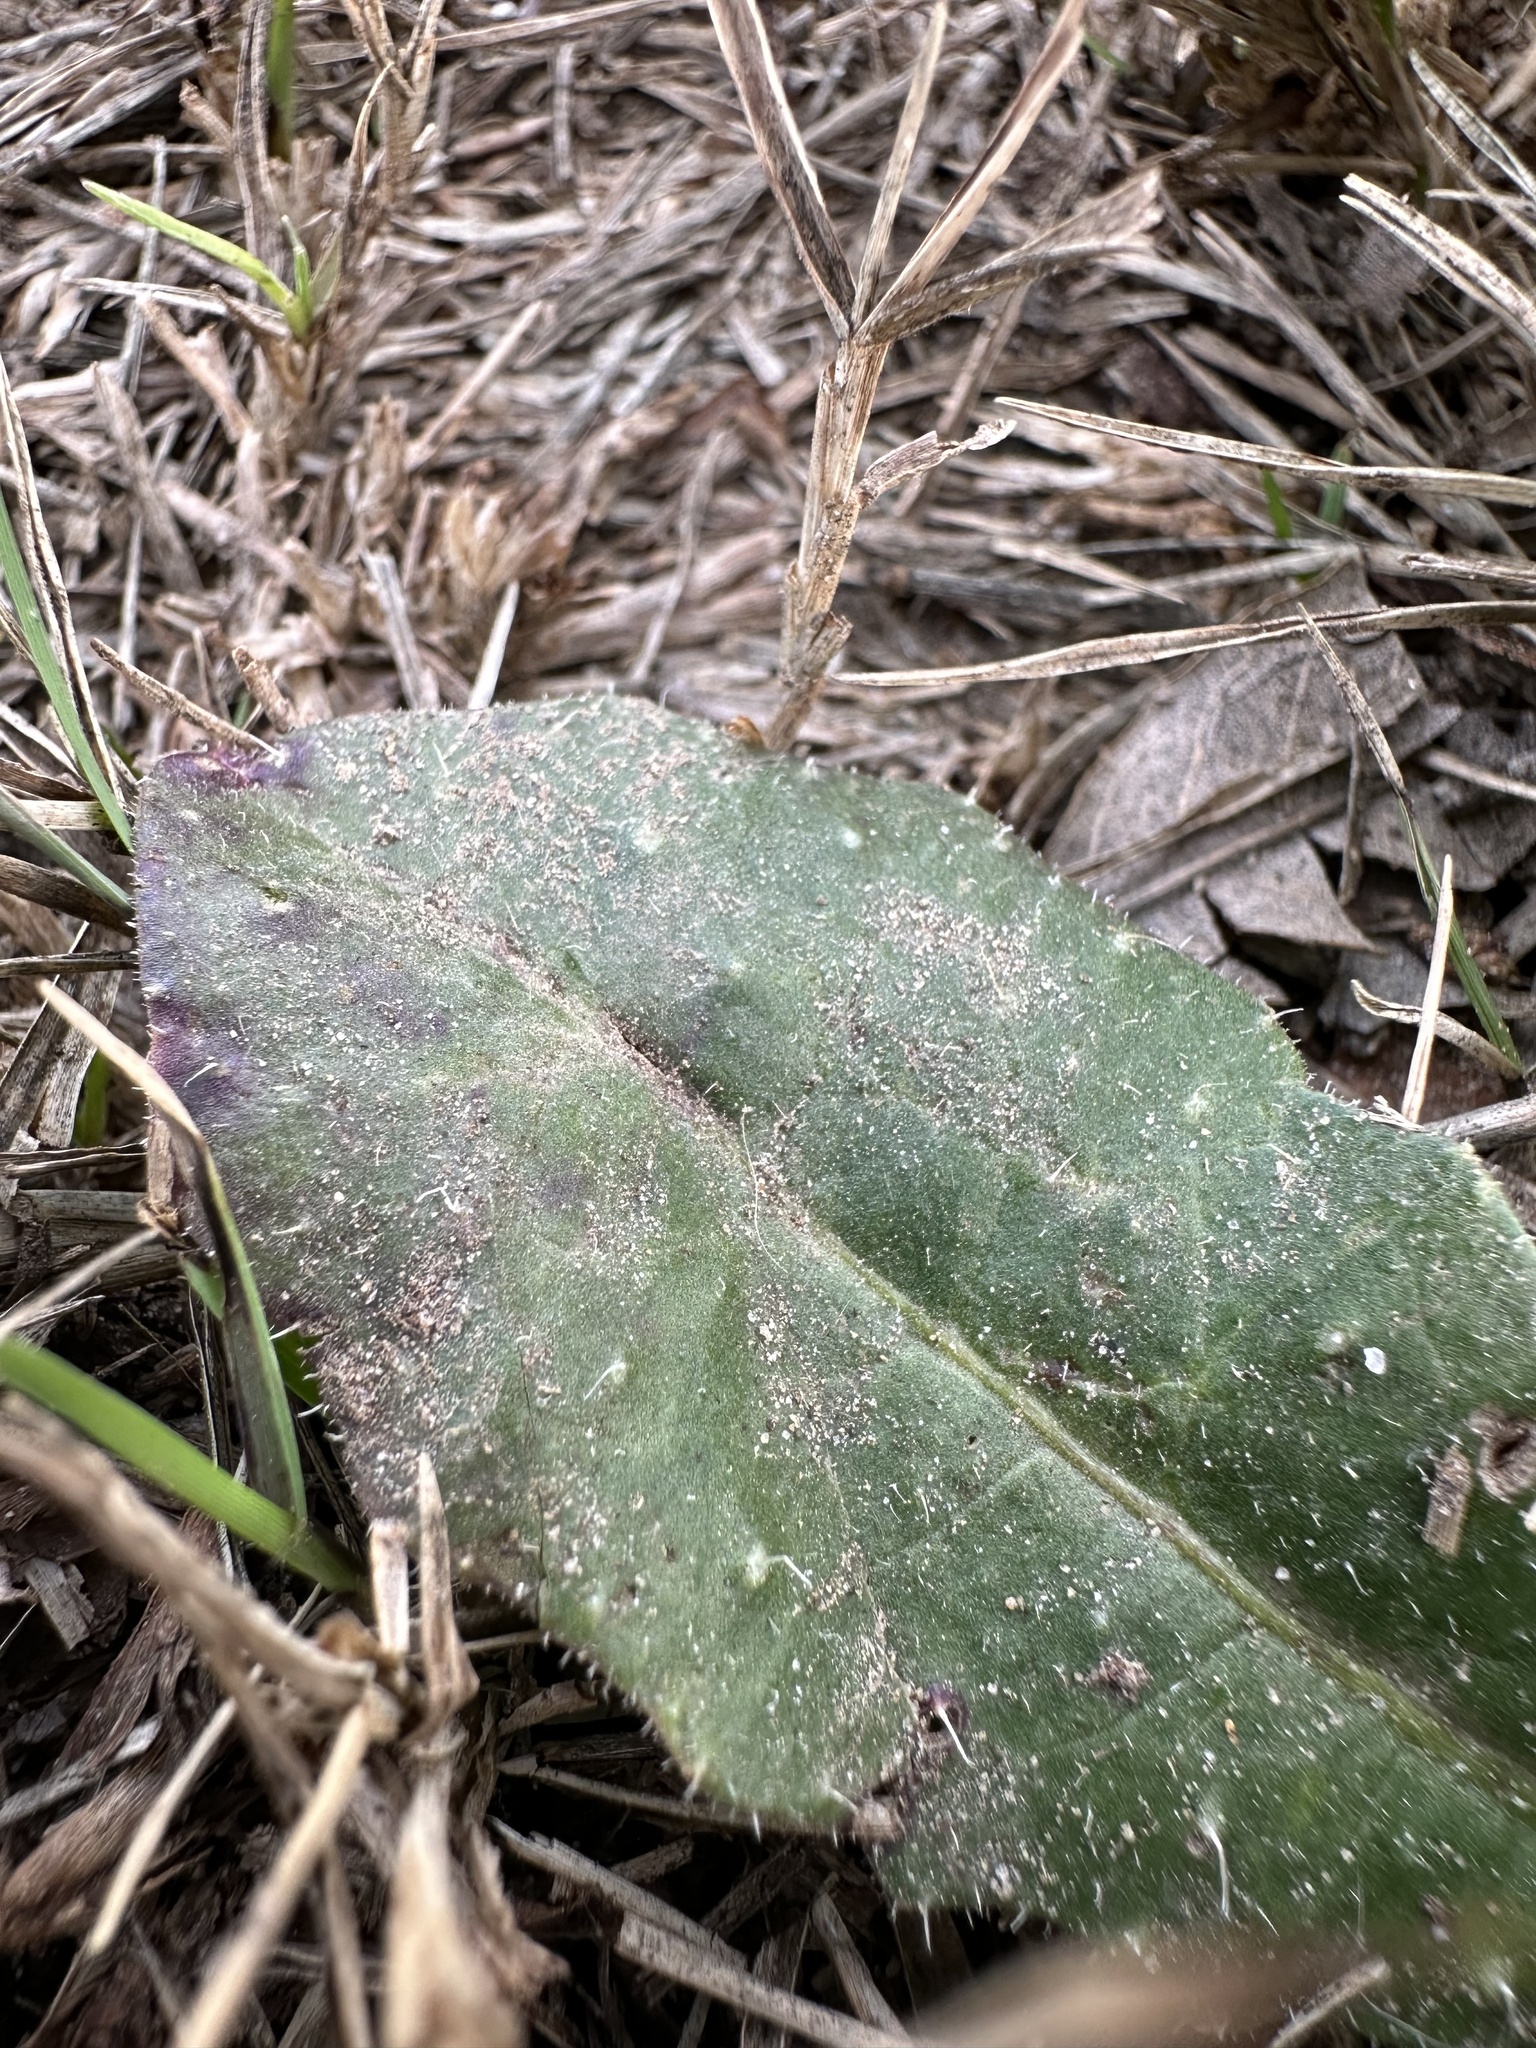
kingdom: Plantae
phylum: Tracheophyta
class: Magnoliopsida
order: Asterales
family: Asteraceae
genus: Helminthotheca
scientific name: Helminthotheca echioides
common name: Ox-tongue
